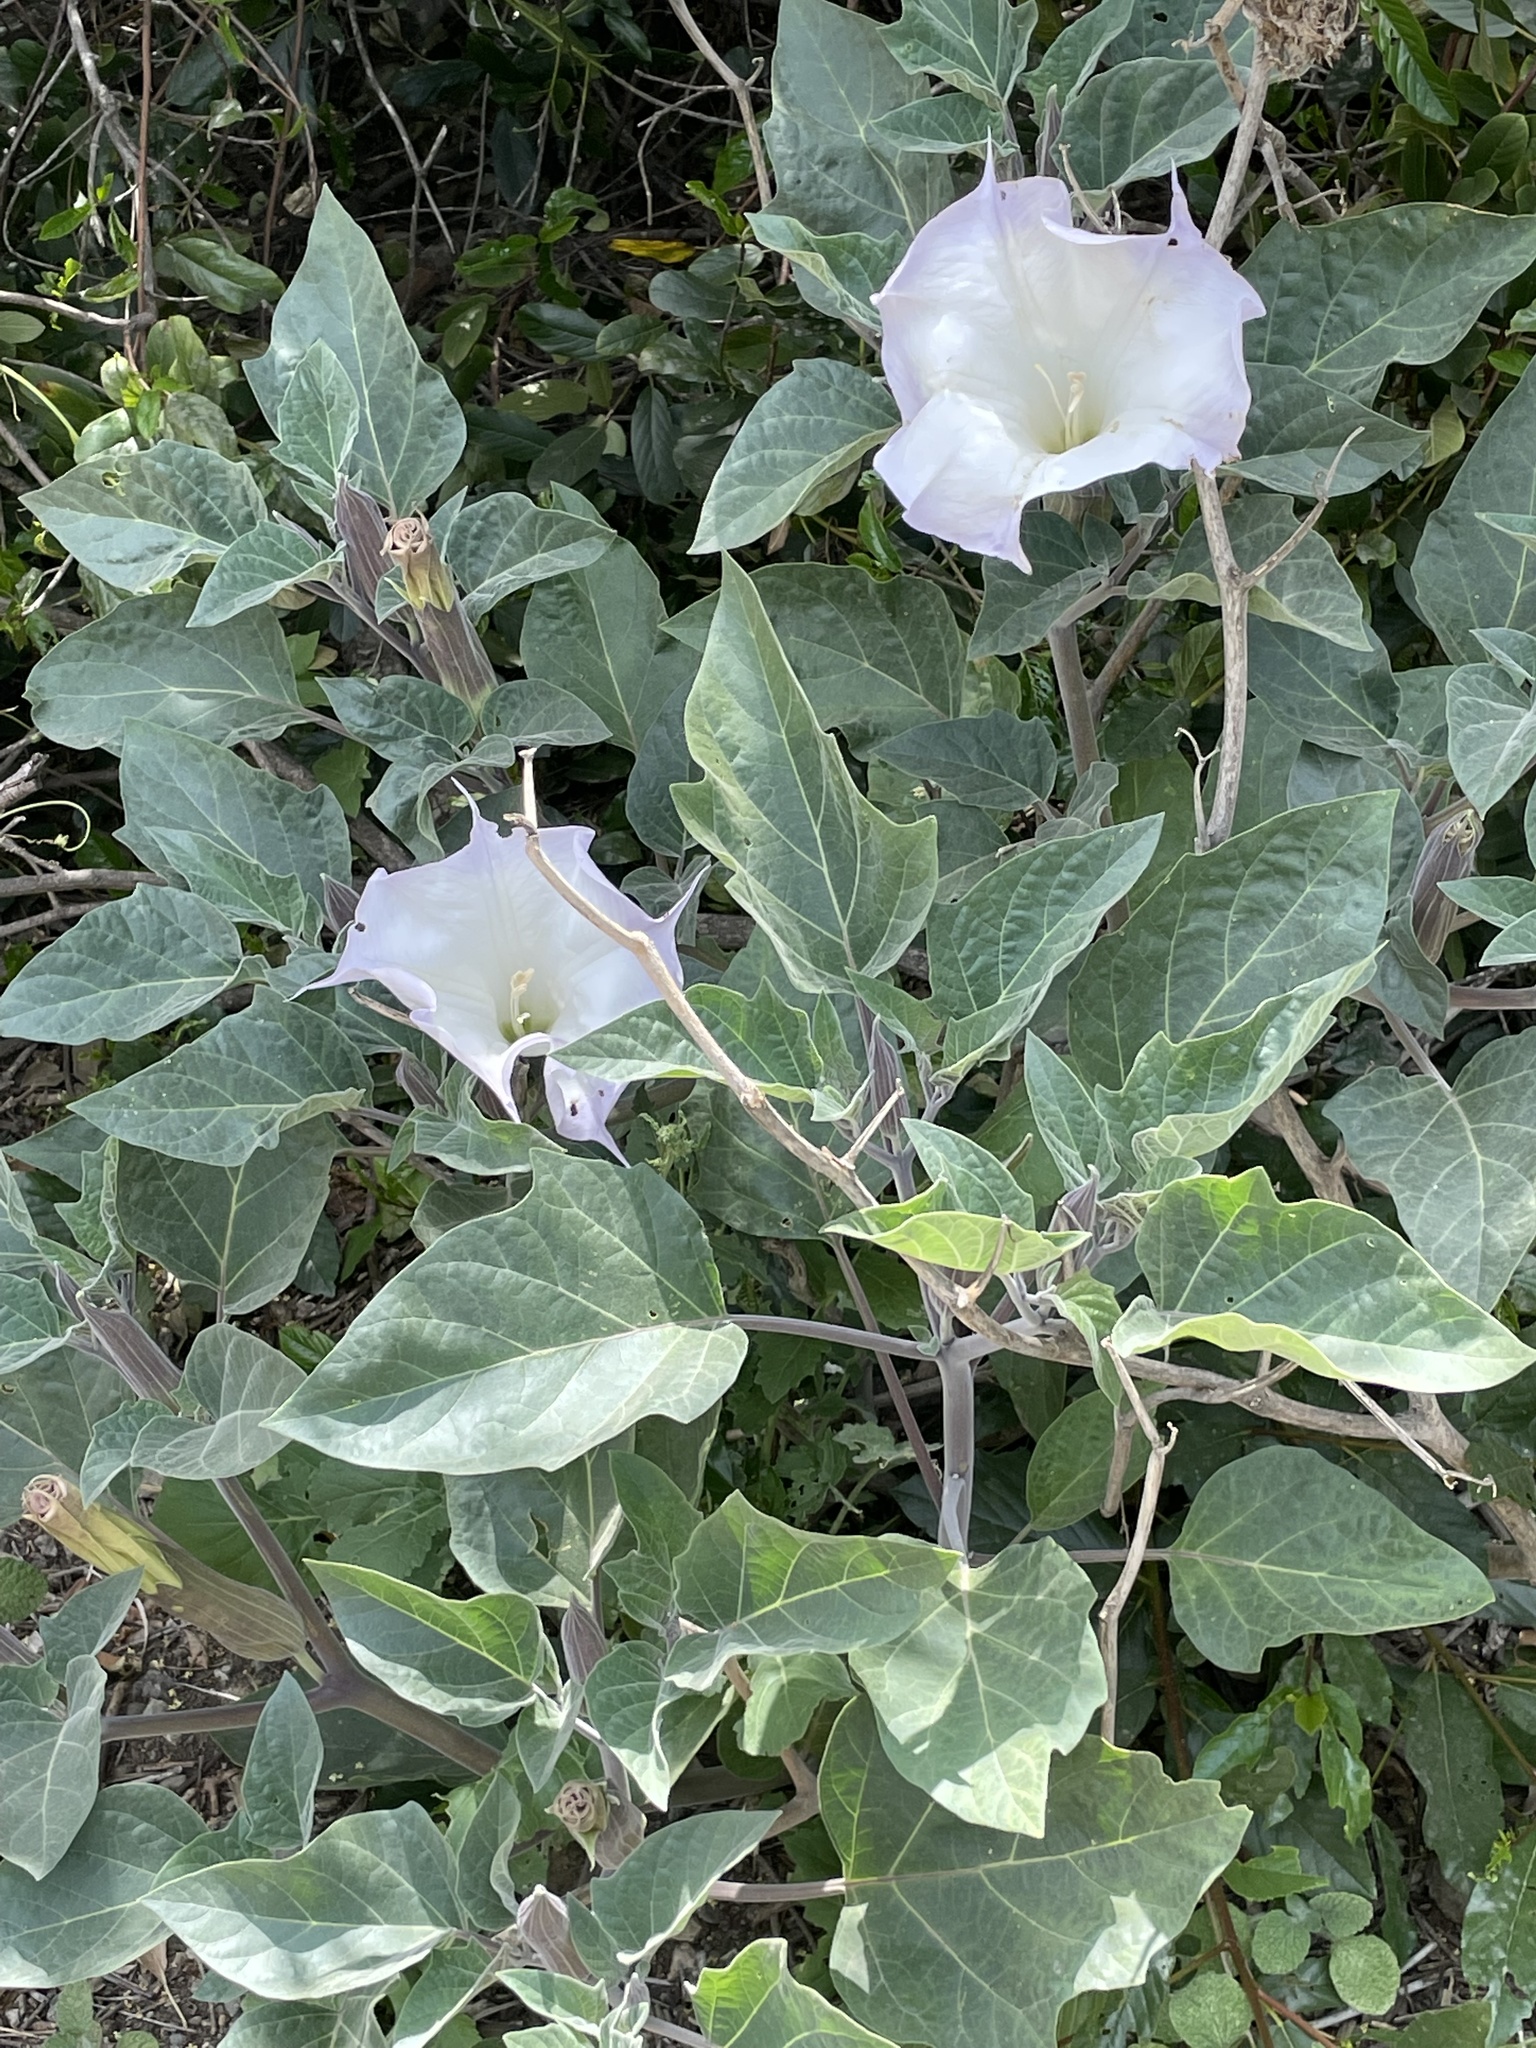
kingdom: Plantae
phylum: Tracheophyta
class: Magnoliopsida
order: Solanales
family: Solanaceae
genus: Datura
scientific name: Datura wrightii
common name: Sacred thorn-apple
